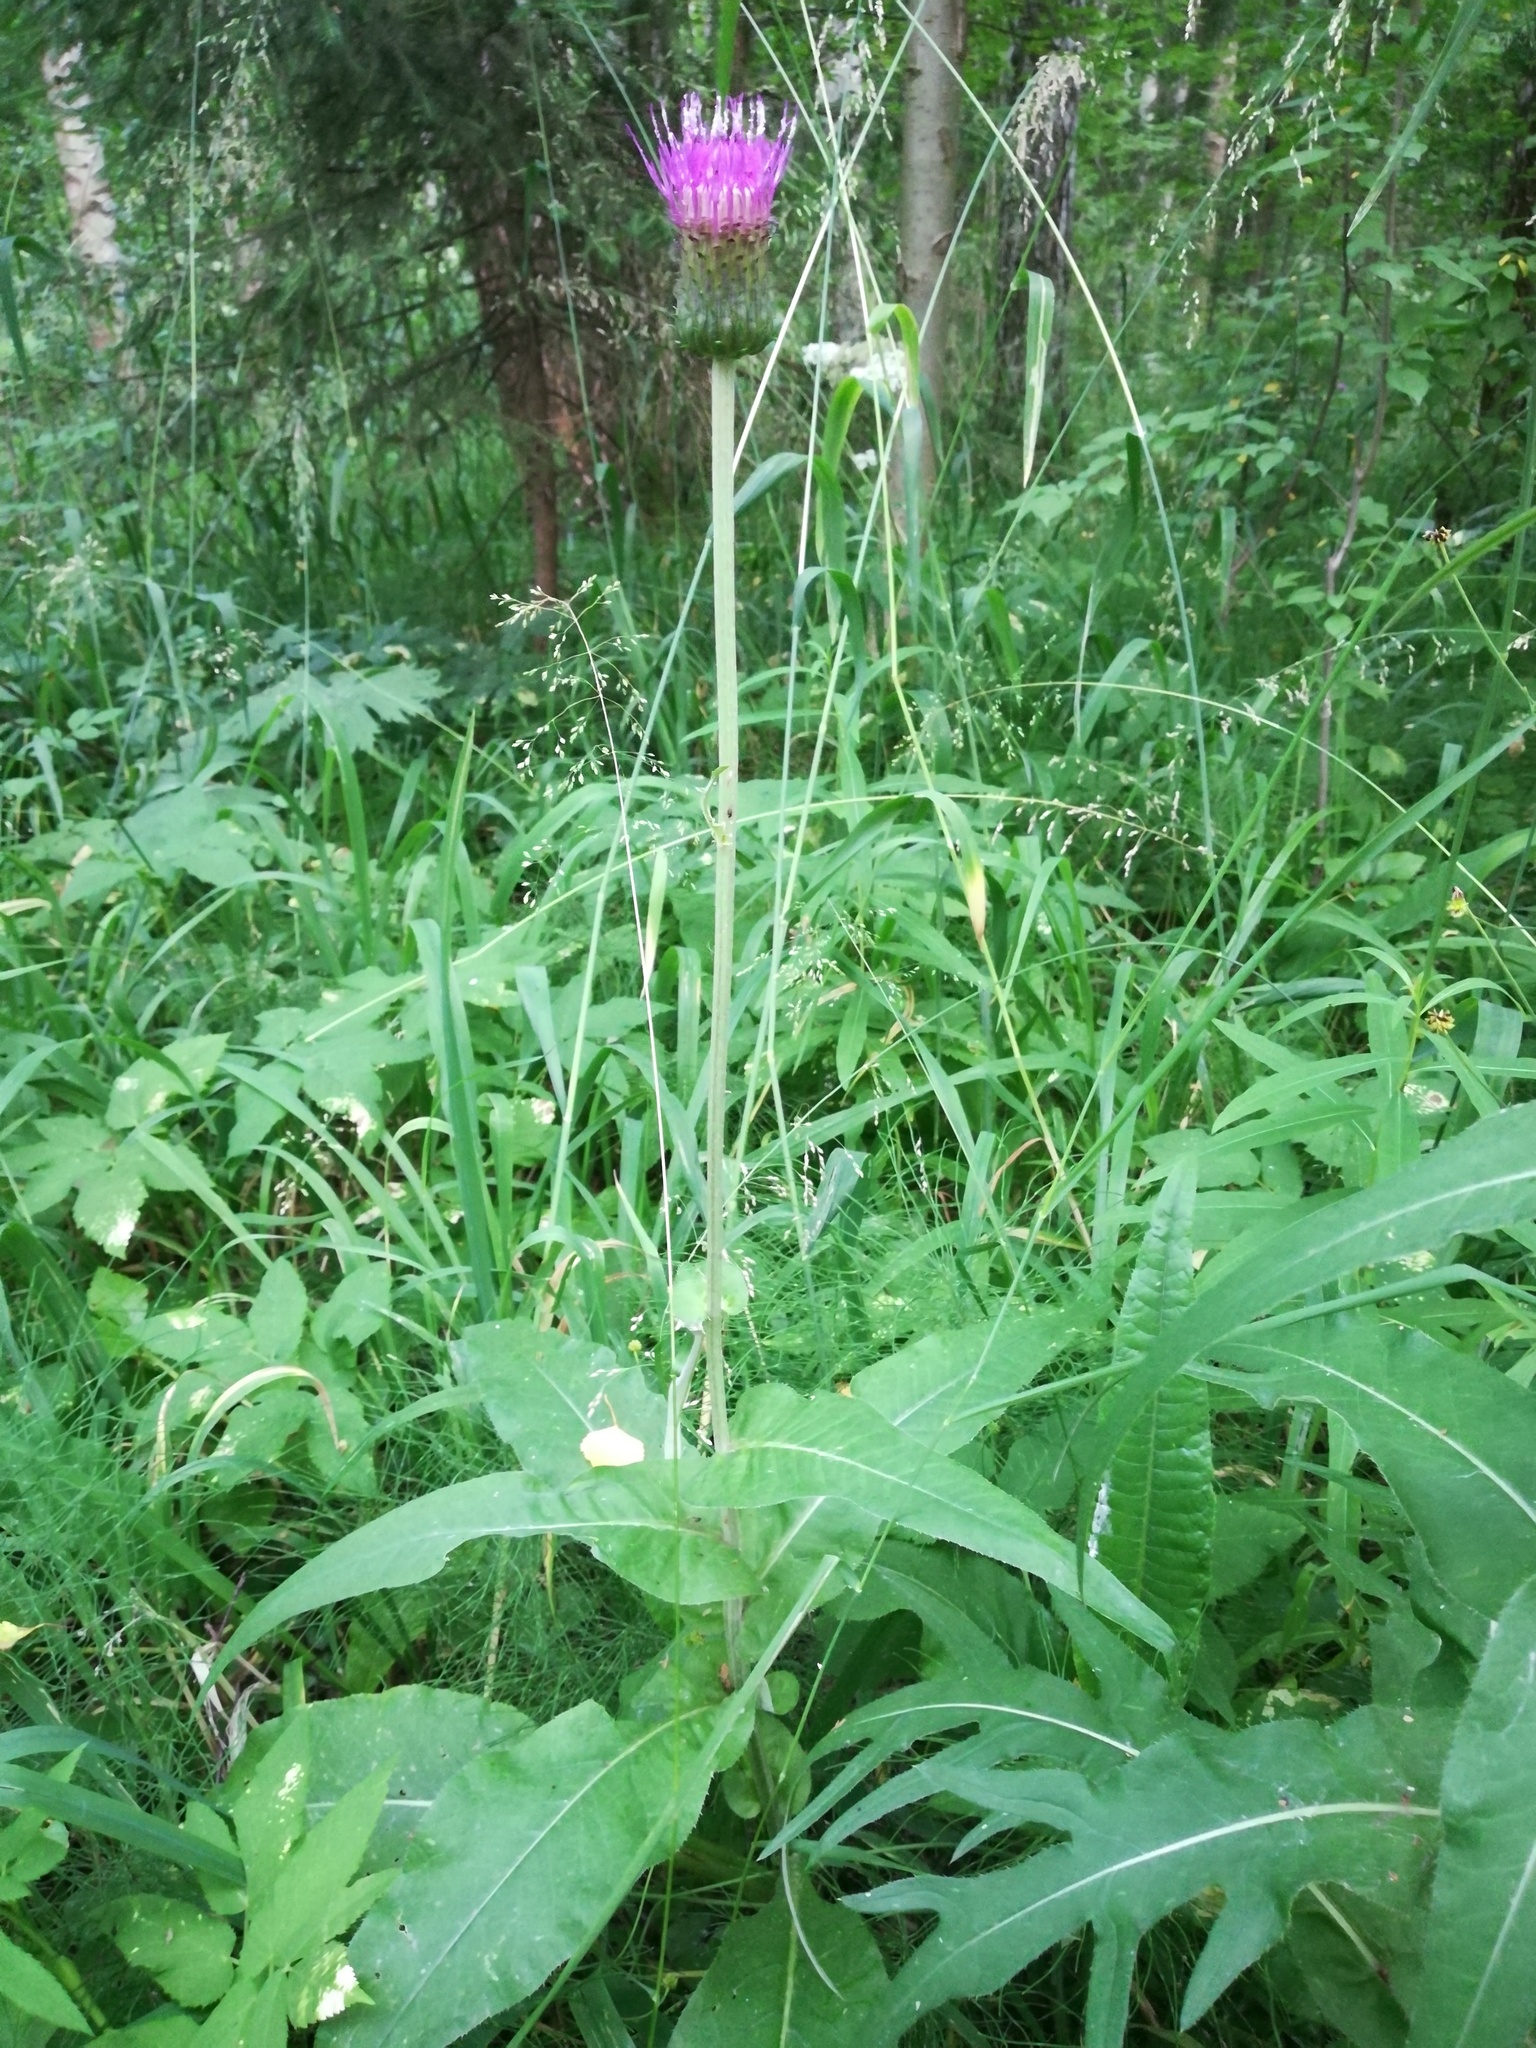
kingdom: Plantae
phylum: Tracheophyta
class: Magnoliopsida
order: Asterales
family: Asteraceae
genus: Cirsium
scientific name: Cirsium heterophyllum
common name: Melancholy thistle
